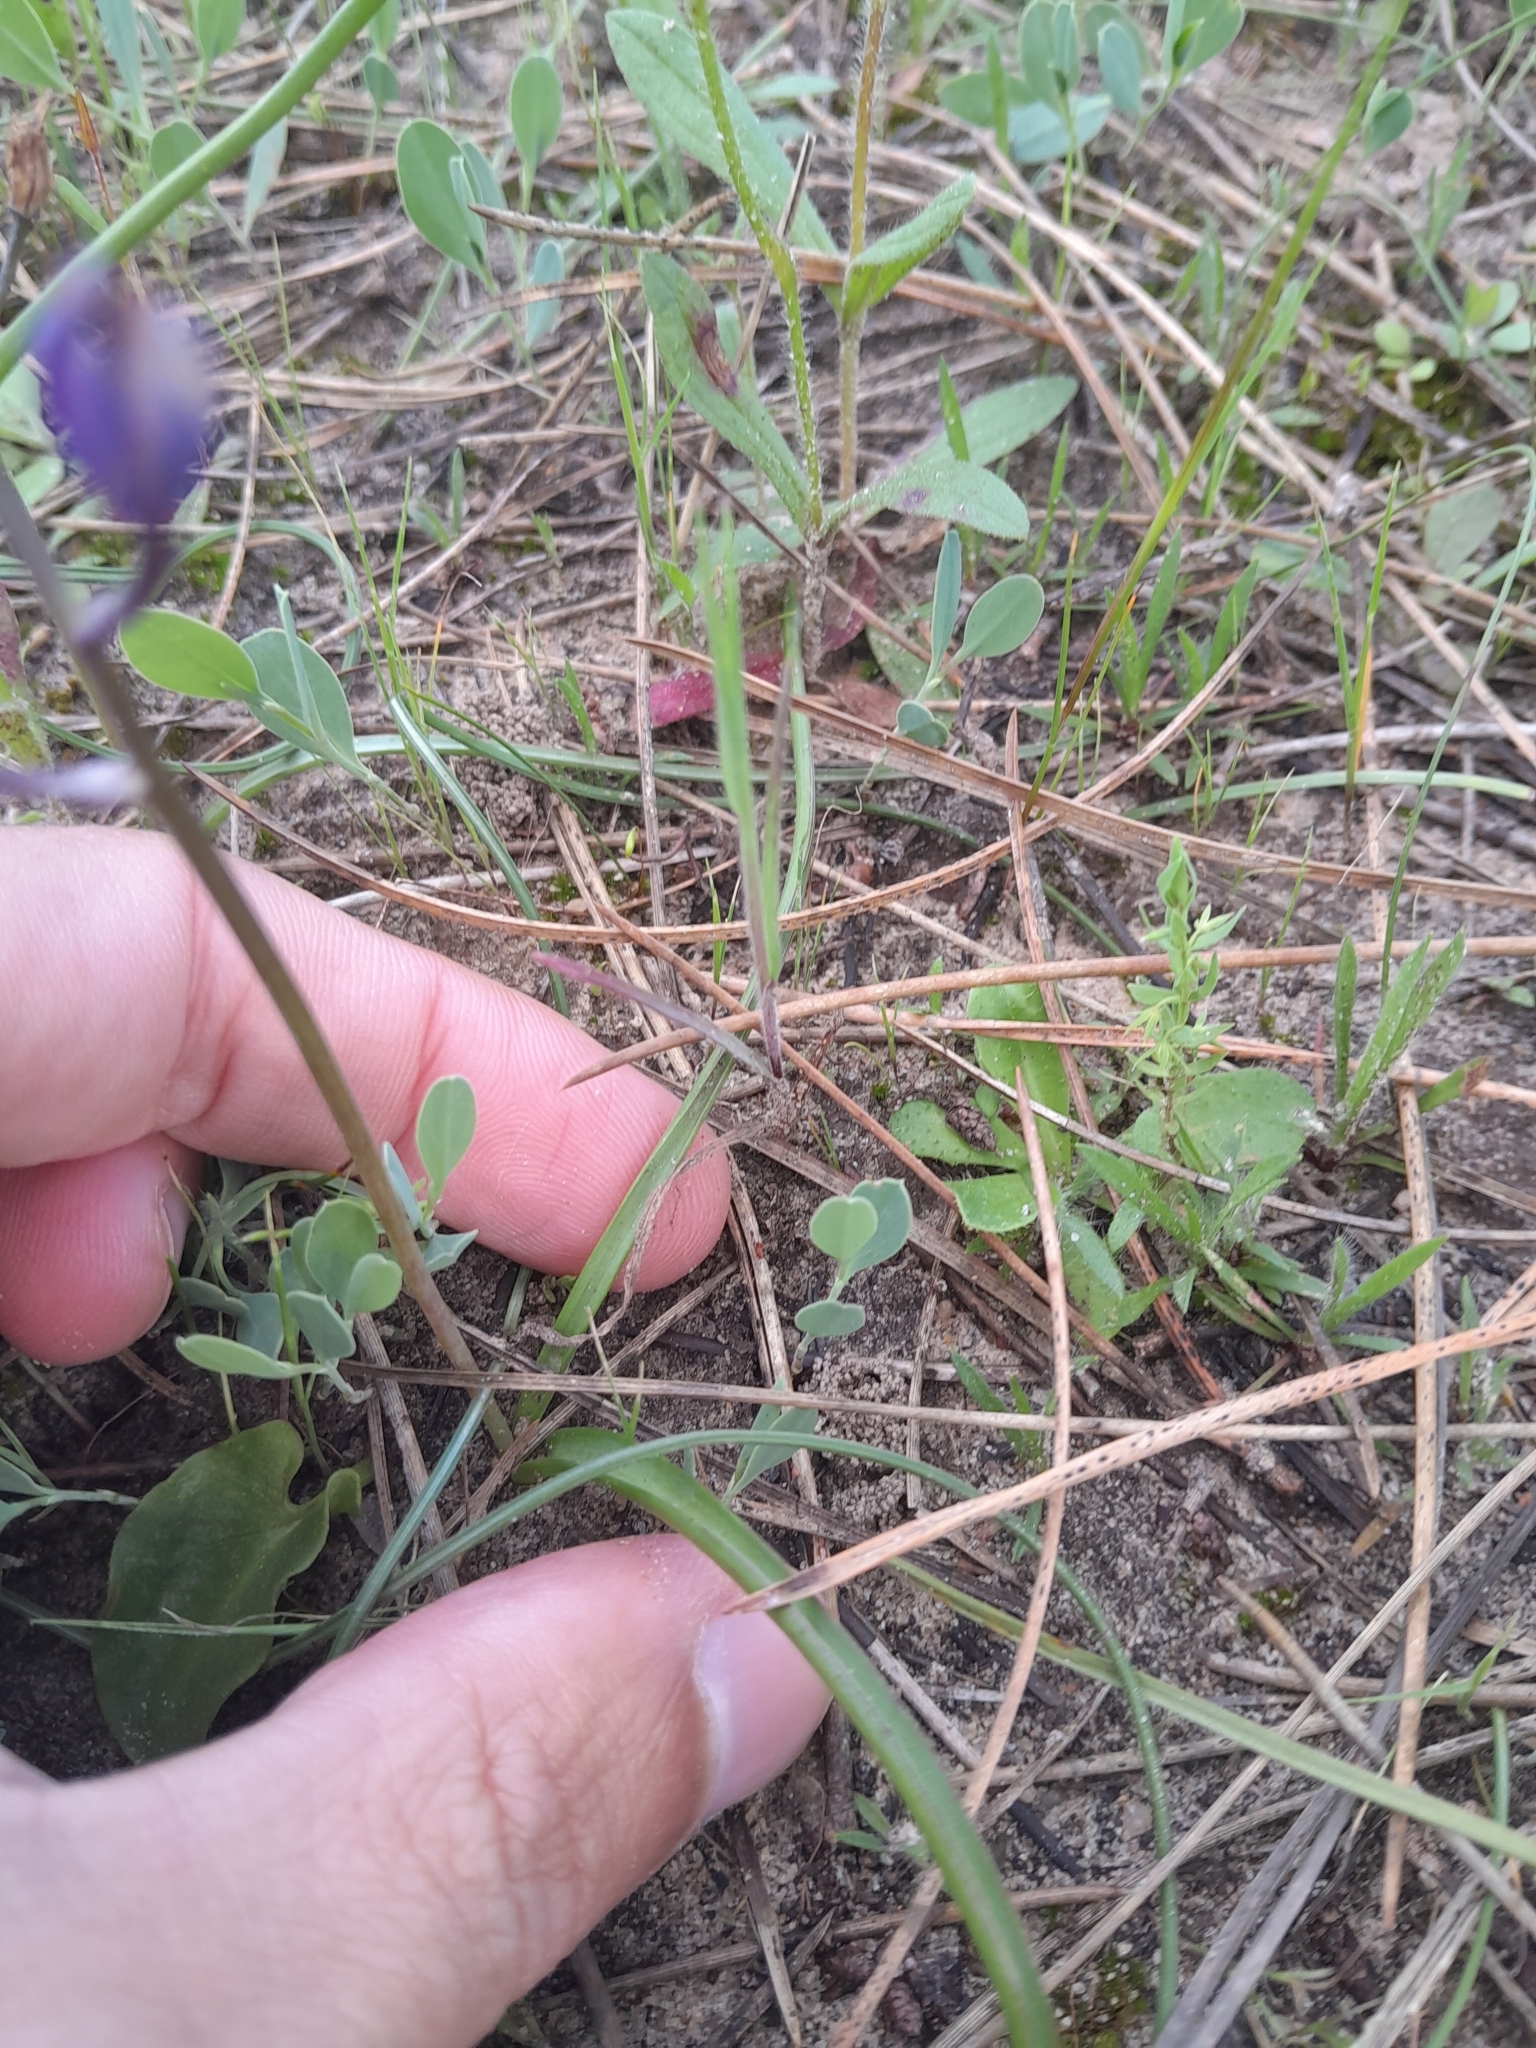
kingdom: Plantae
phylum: Tracheophyta
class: Liliopsida
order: Asparagales
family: Asparagaceae
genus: Scilla
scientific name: Scilla verna
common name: Spring squill
